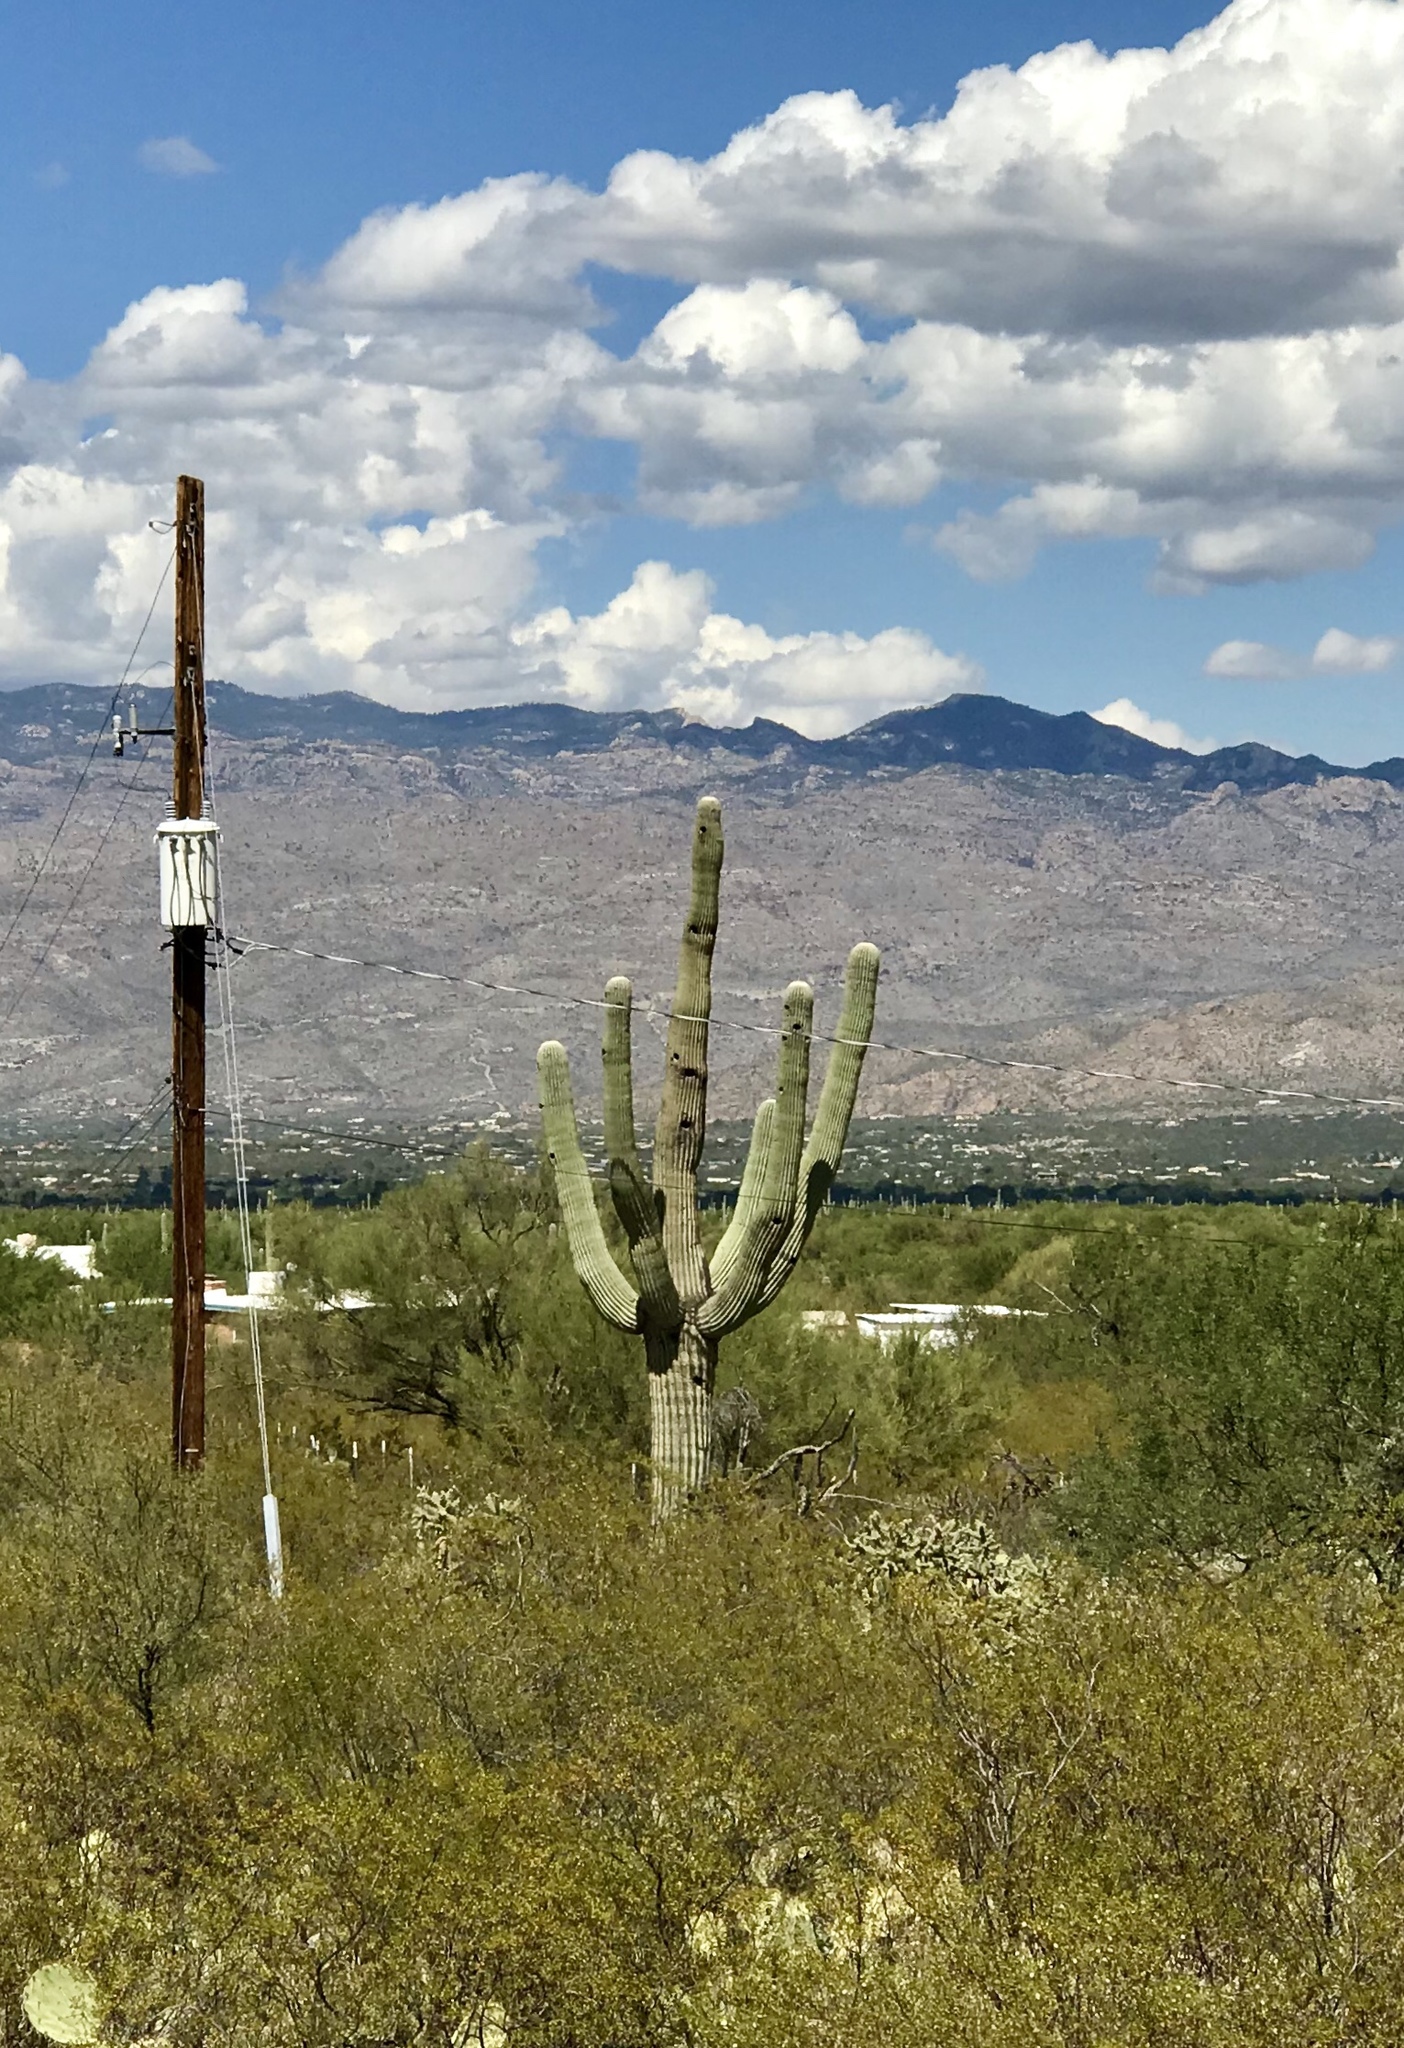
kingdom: Plantae
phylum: Tracheophyta
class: Magnoliopsida
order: Caryophyllales
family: Cactaceae
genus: Carnegiea
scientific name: Carnegiea gigantea
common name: Saguaro
